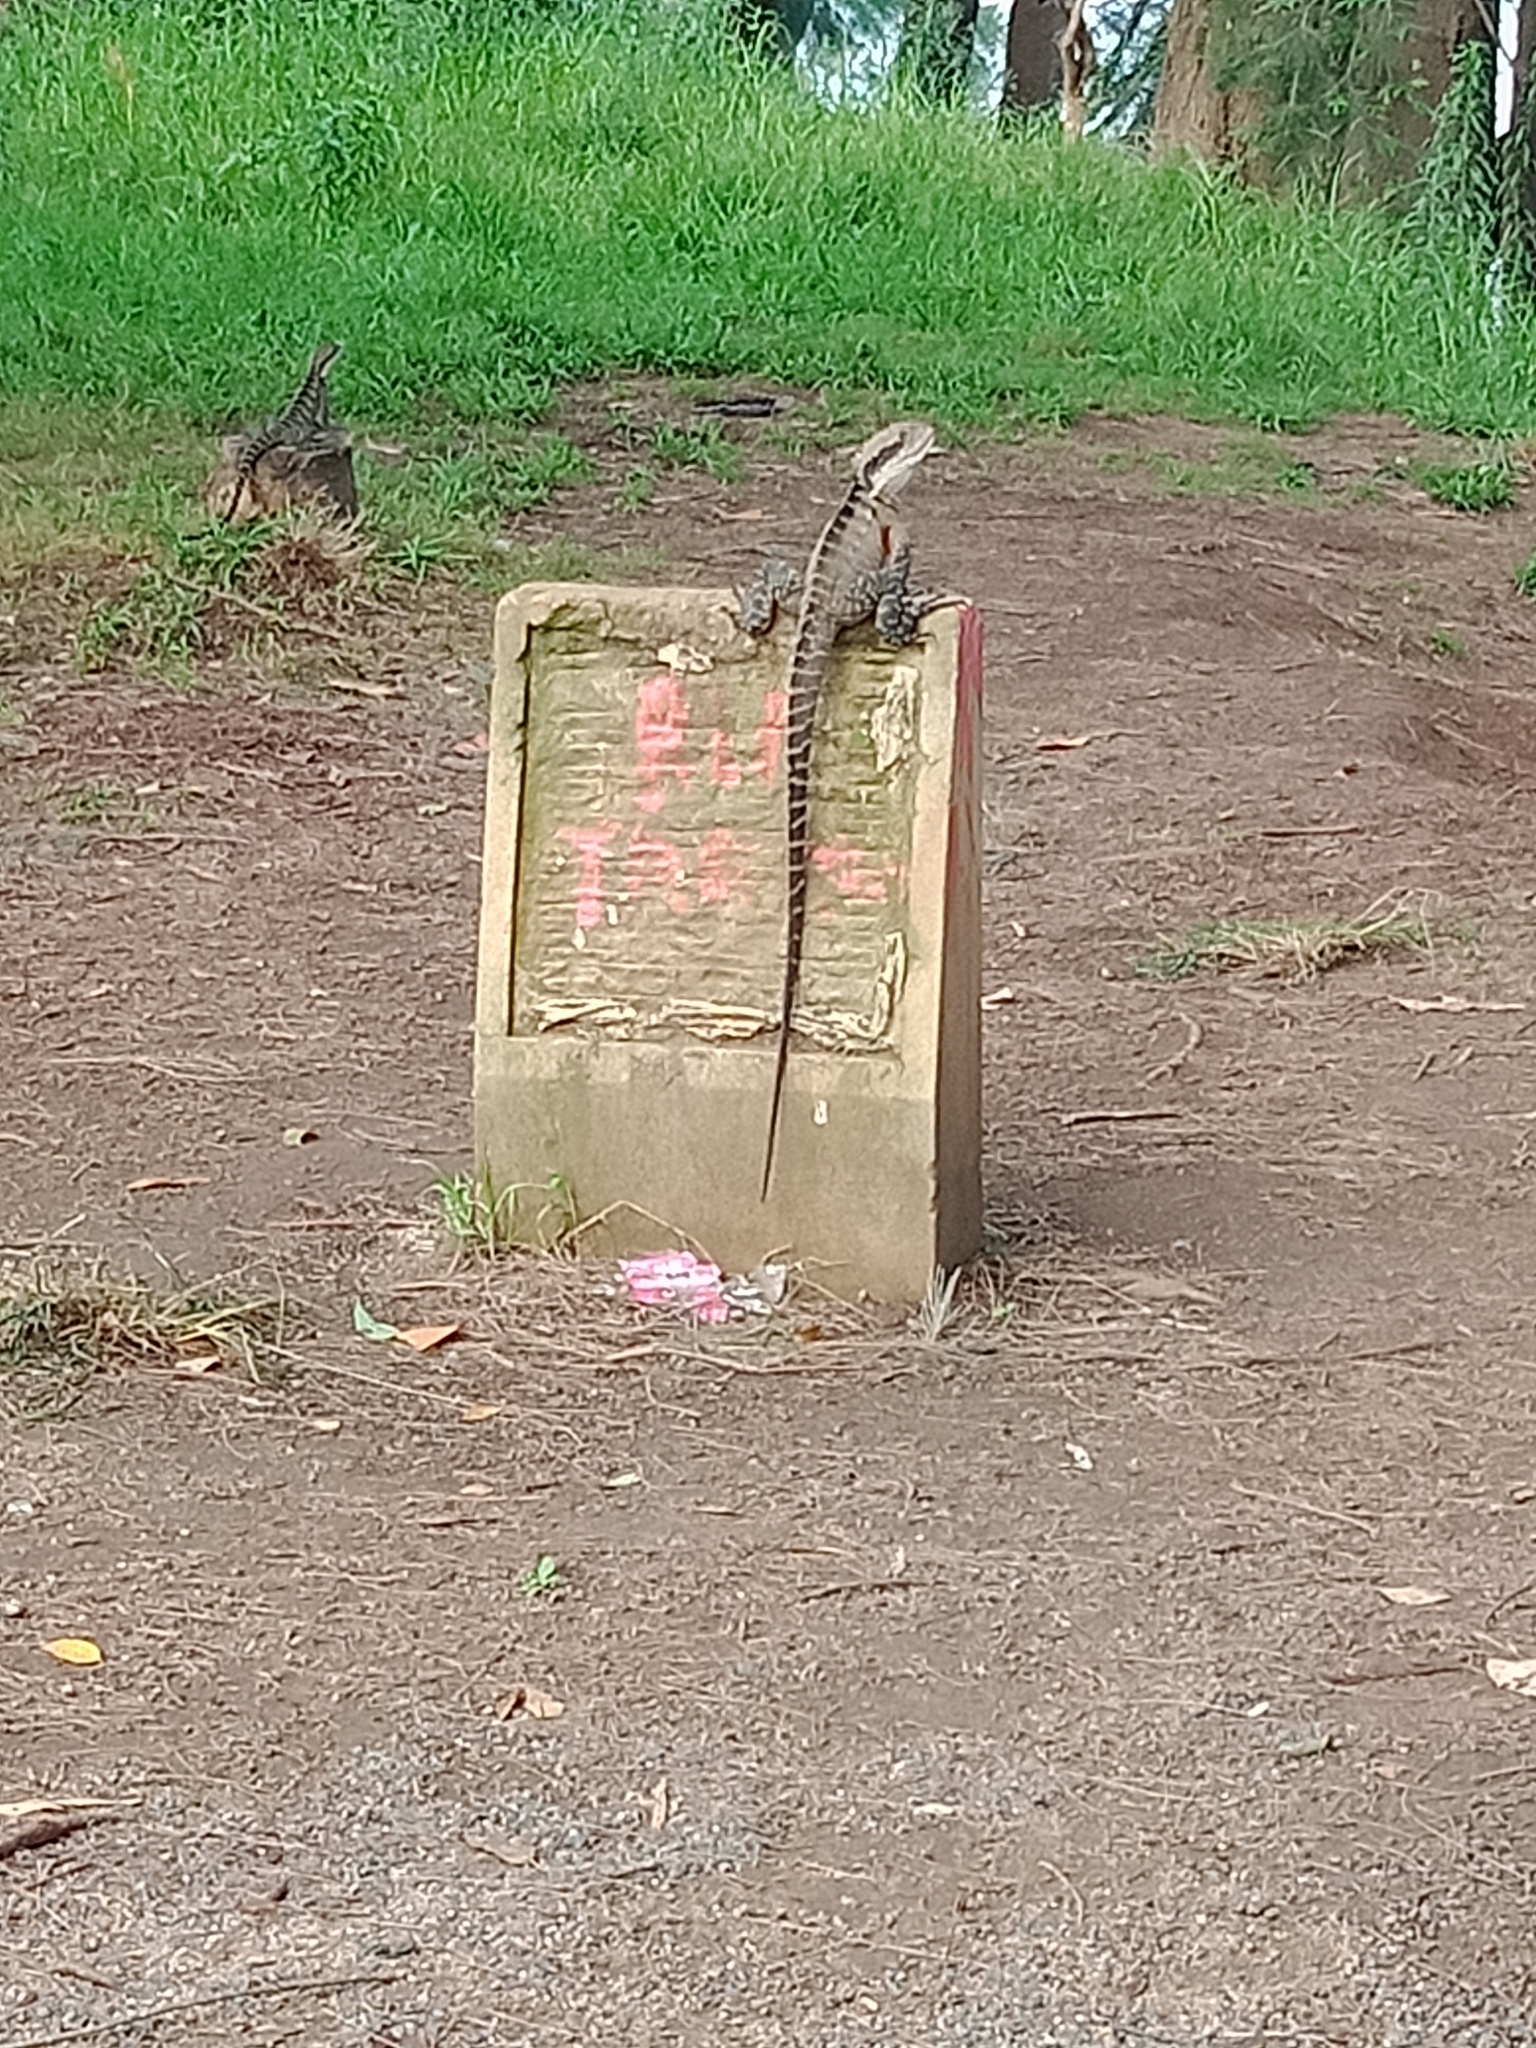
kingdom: Animalia
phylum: Chordata
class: Squamata
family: Agamidae
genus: Intellagama
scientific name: Intellagama lesueurii
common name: Eastern water dragon
